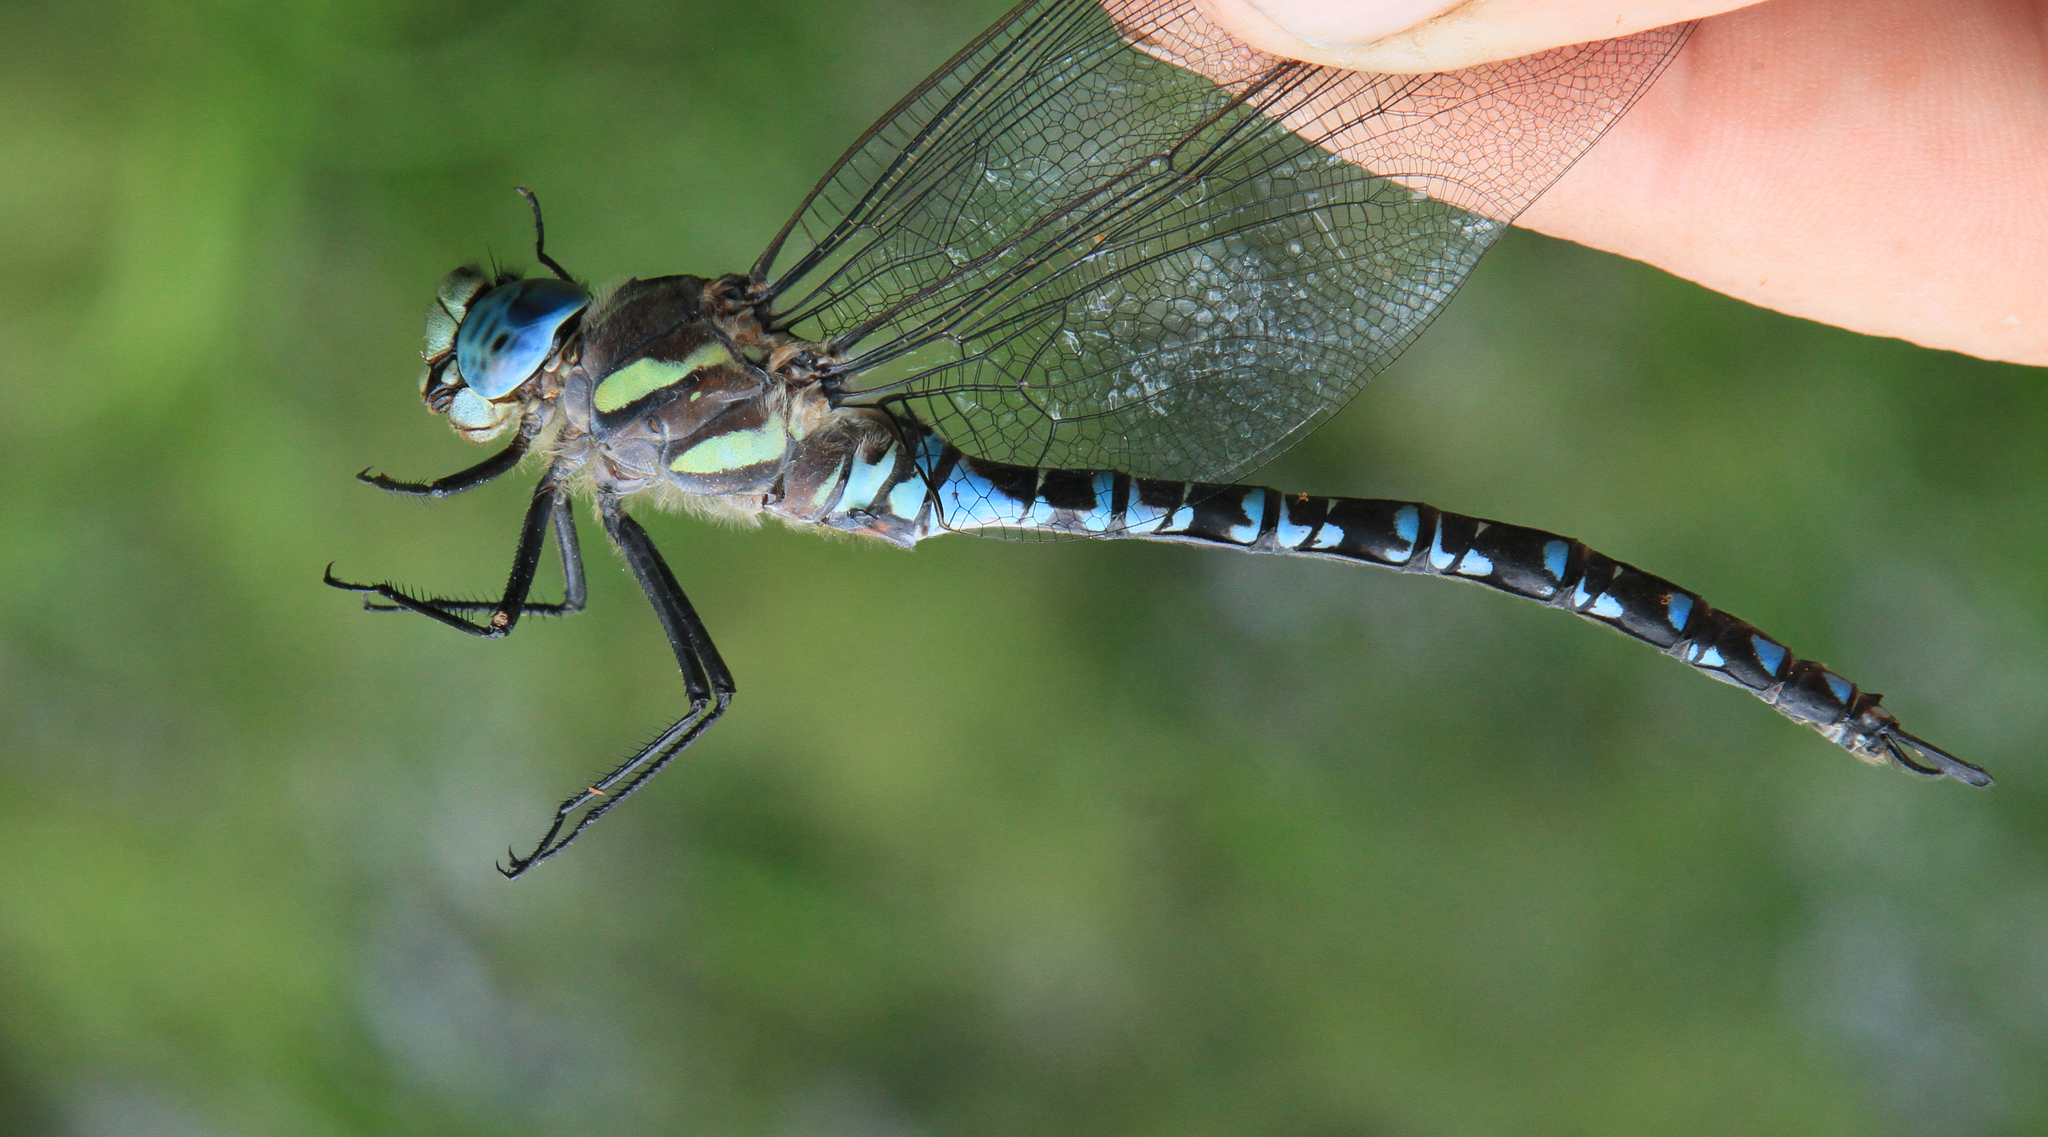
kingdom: Animalia
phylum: Arthropoda
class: Insecta
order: Odonata
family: Aeshnidae
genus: Aeshna
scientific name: Aeshna crenata
